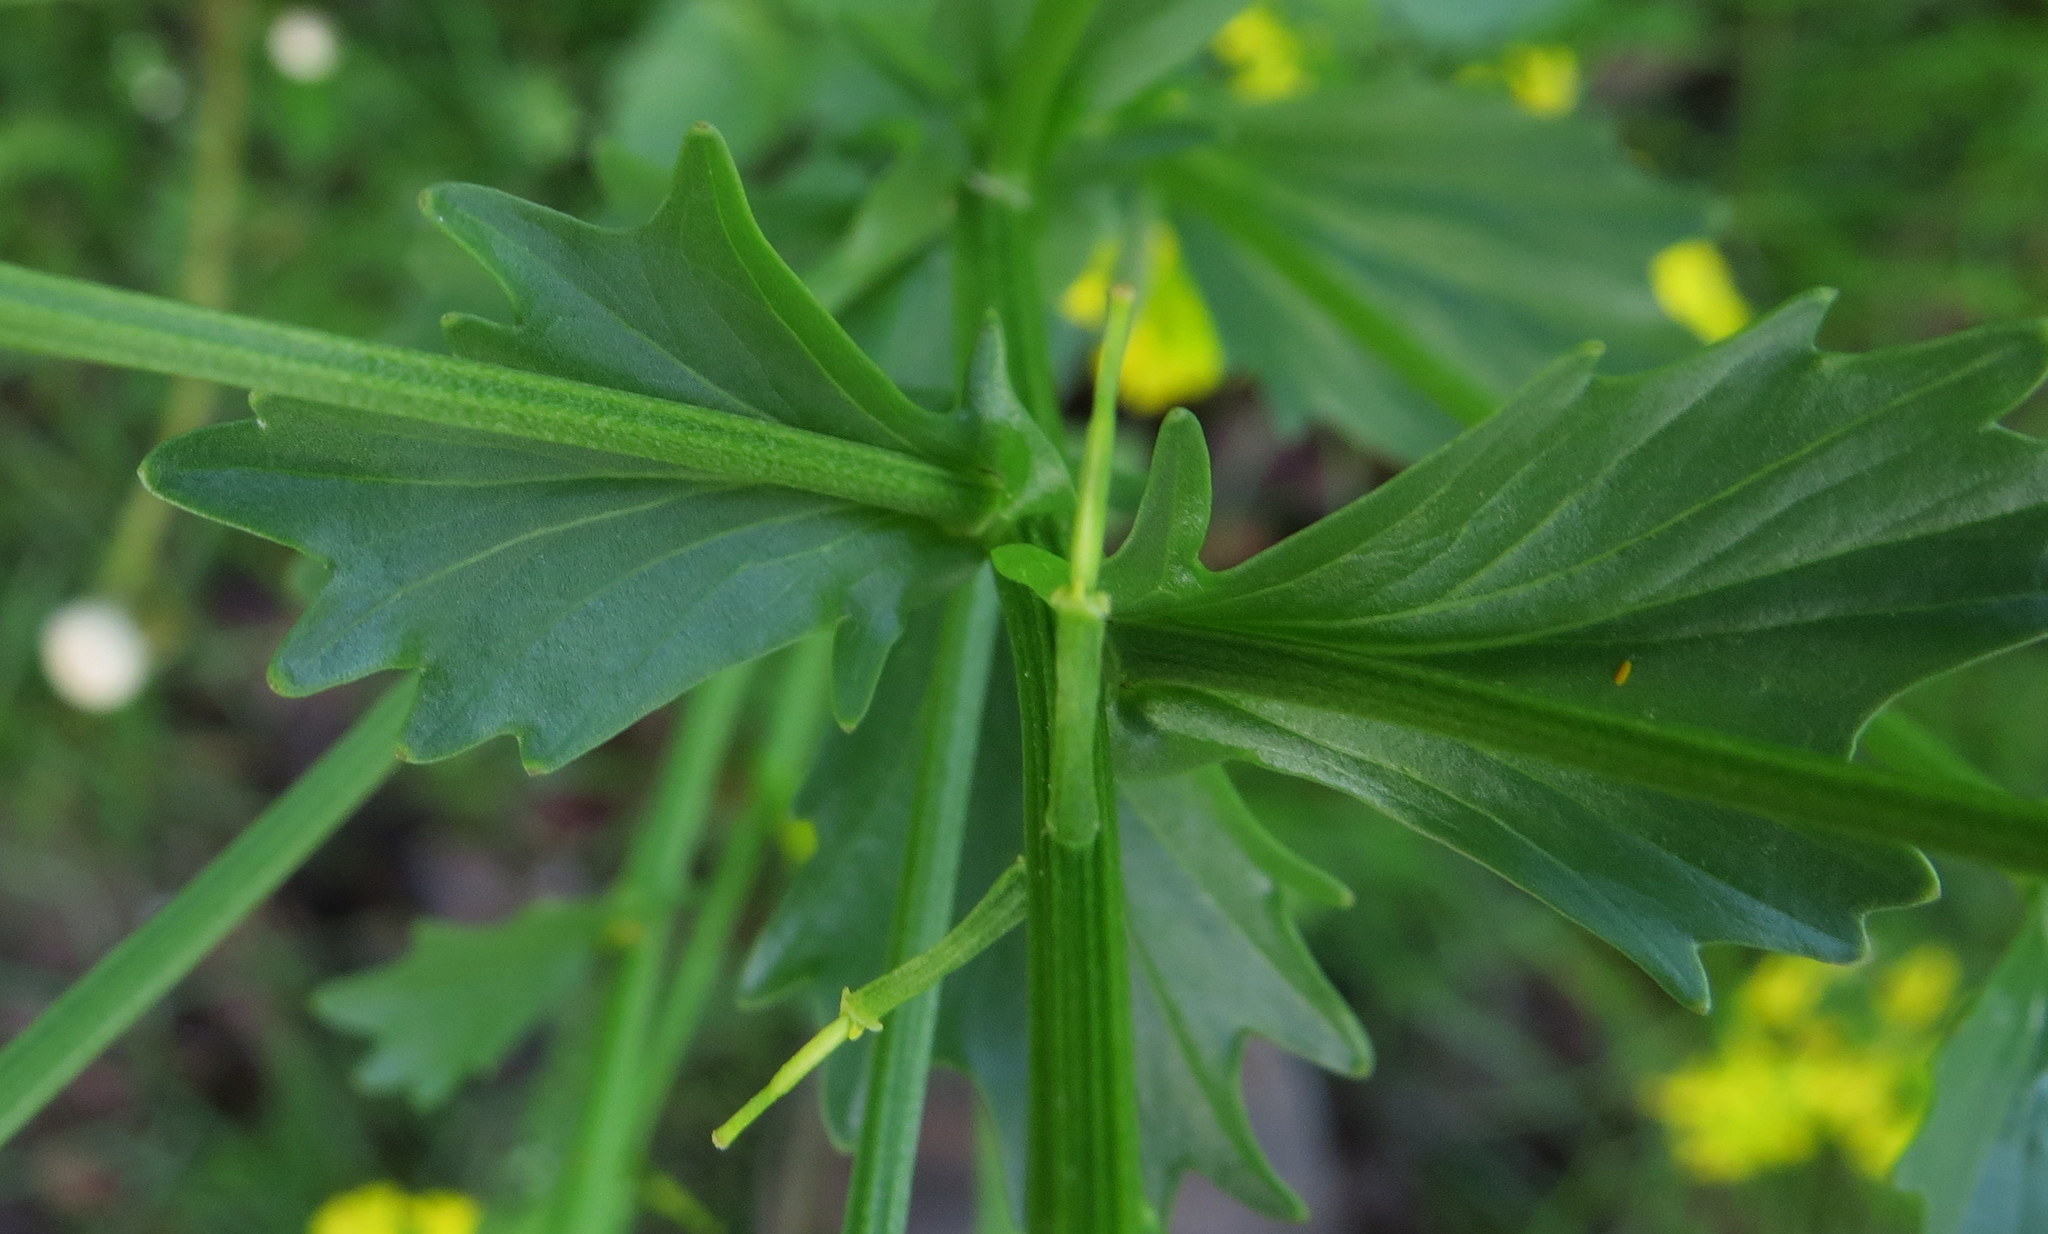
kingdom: Plantae
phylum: Tracheophyta
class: Magnoliopsida
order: Brassicales
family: Brassicaceae
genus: Barbarea
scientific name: Barbarea vulgaris
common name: Cressy-greens
